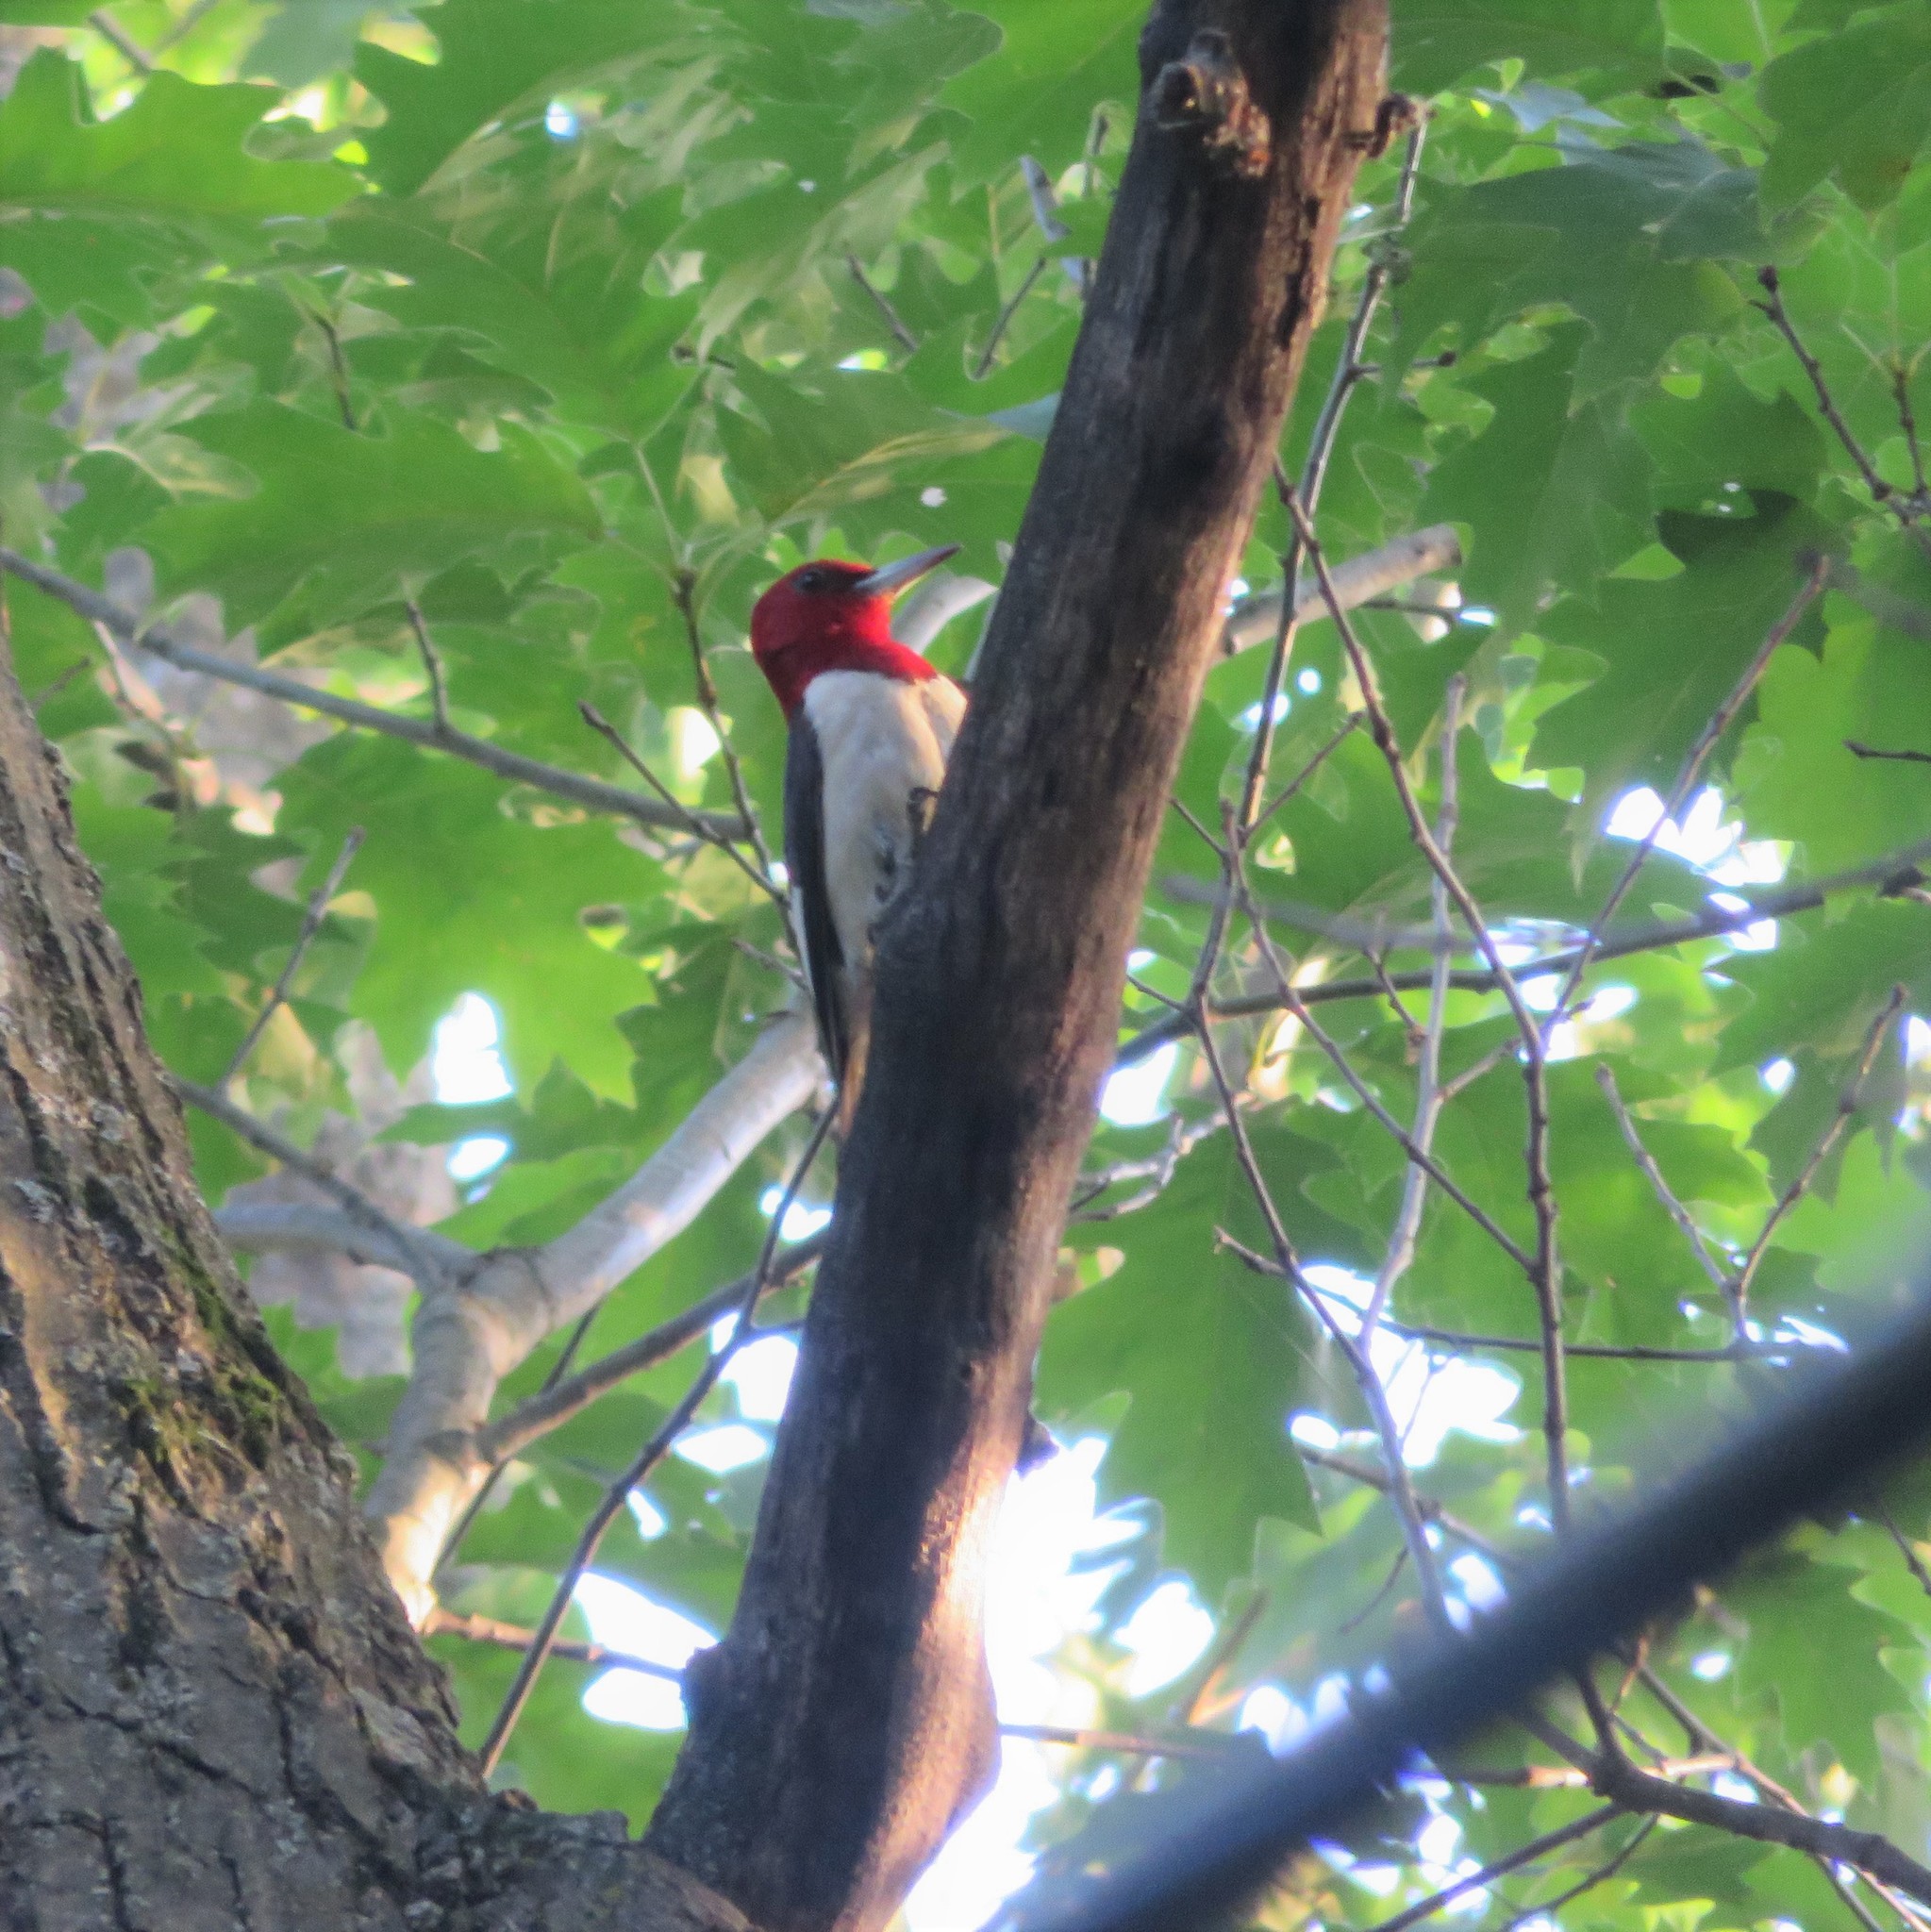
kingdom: Animalia
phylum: Chordata
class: Aves
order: Piciformes
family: Picidae
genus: Melanerpes
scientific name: Melanerpes erythrocephalus
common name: Red-headed woodpecker
